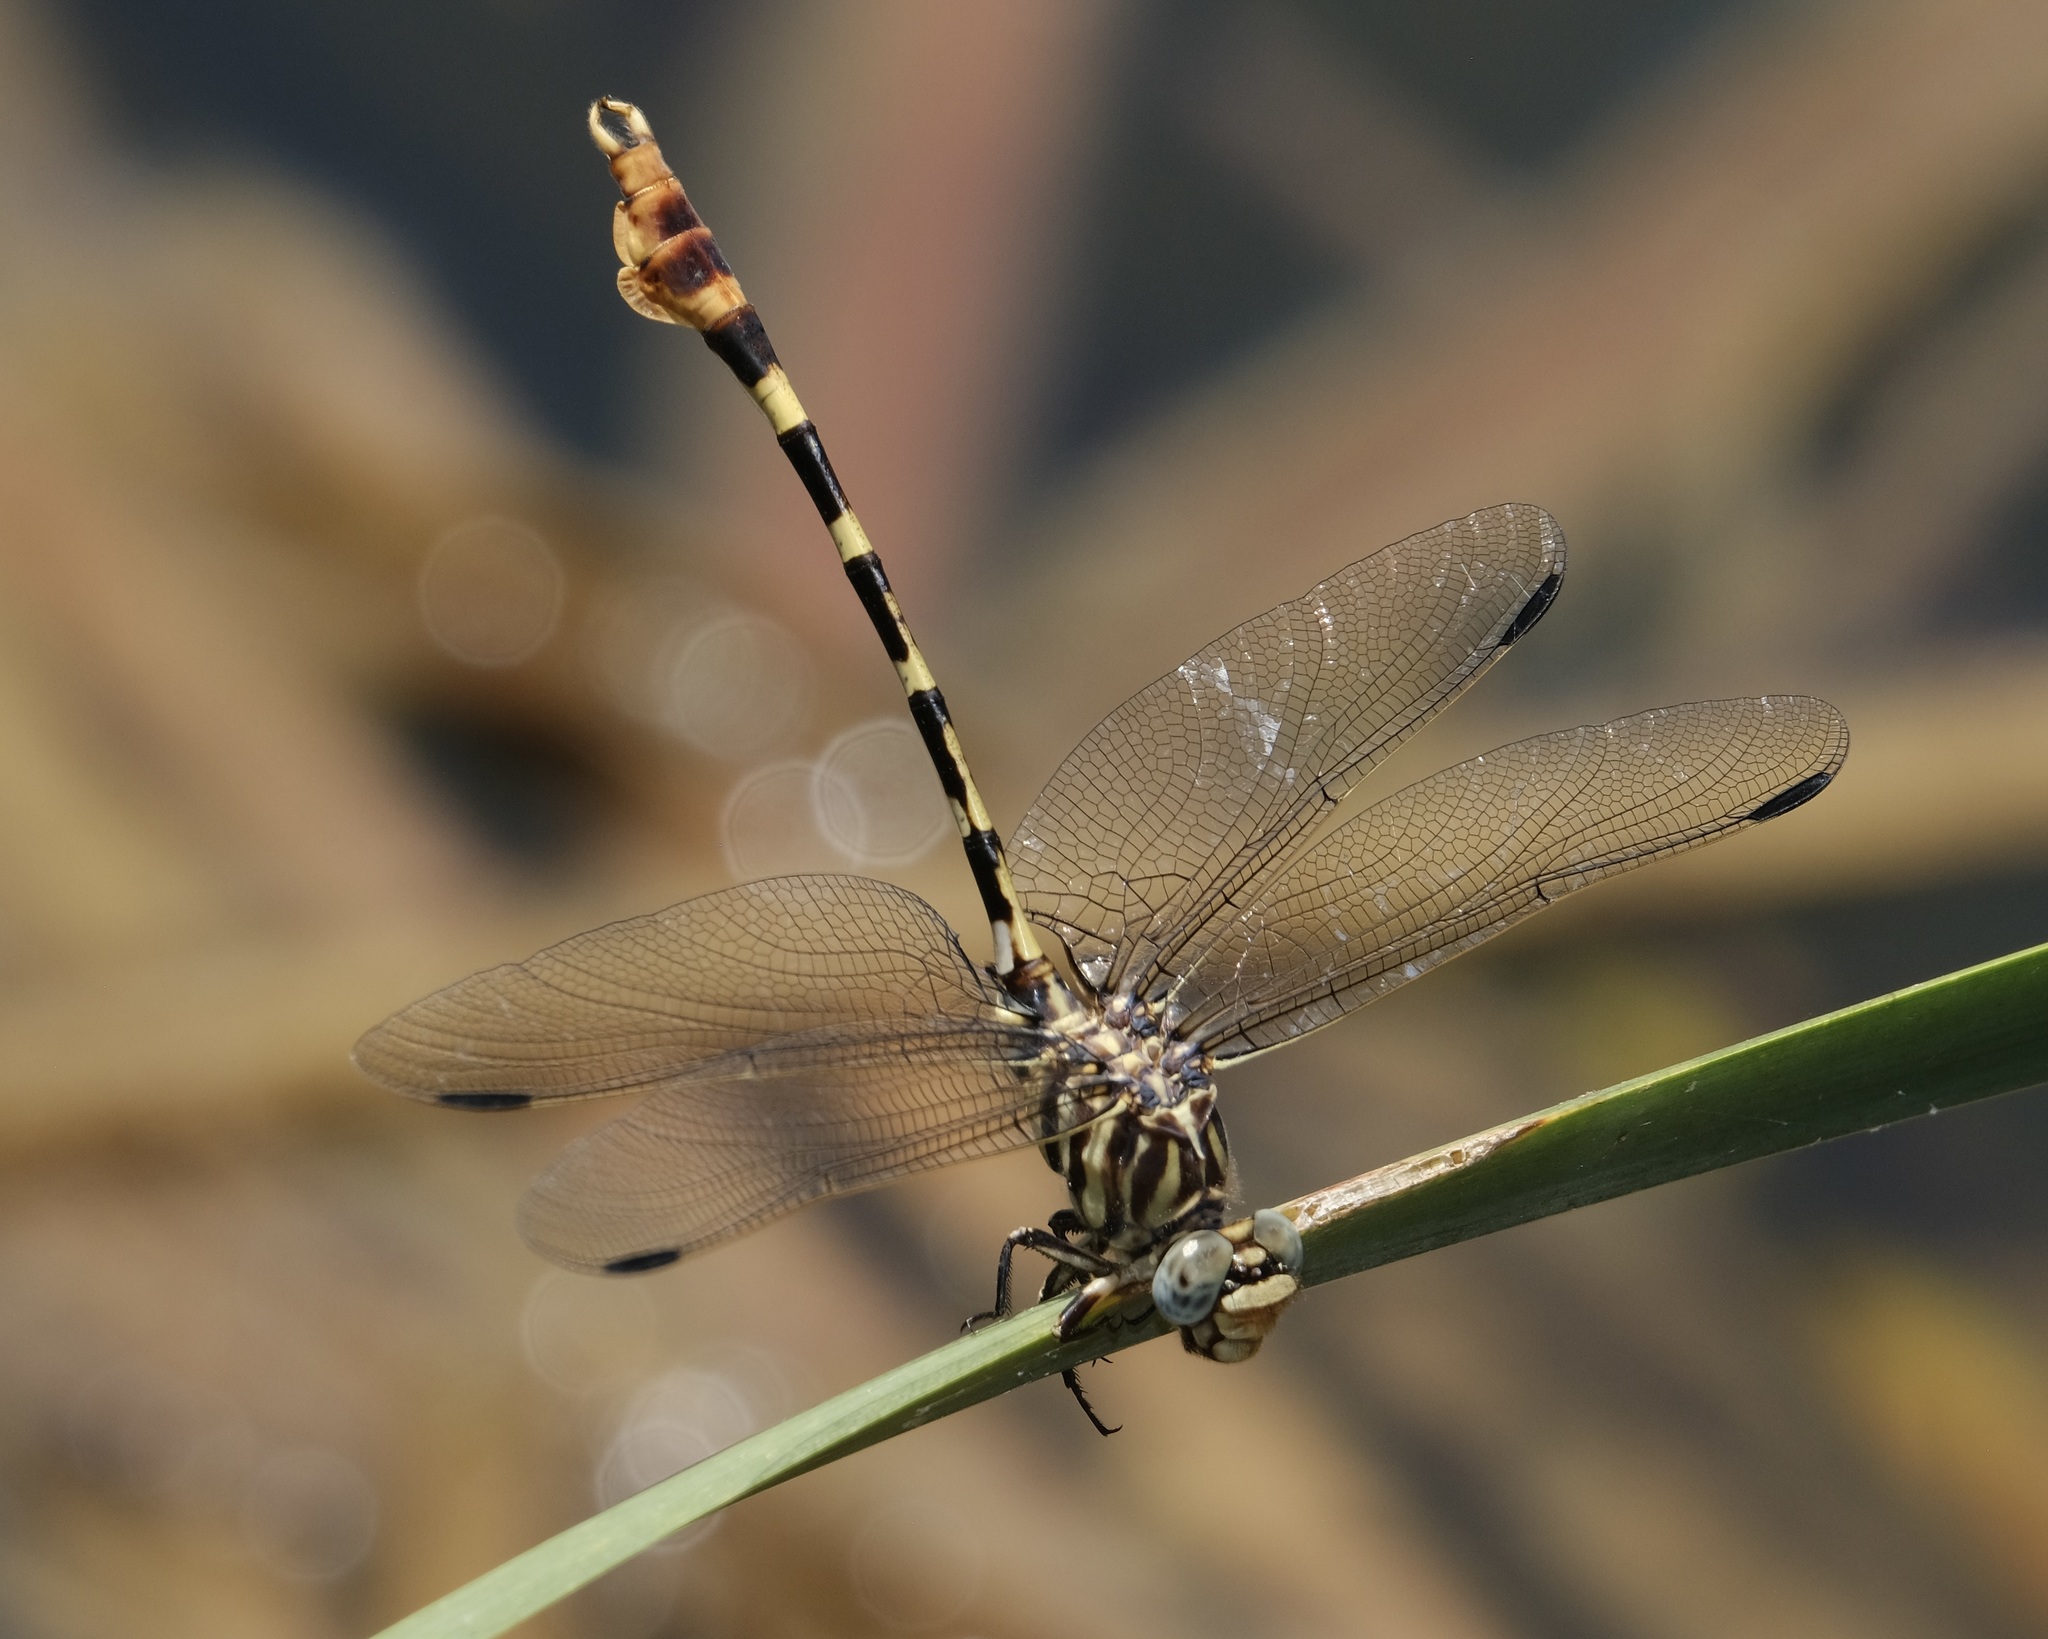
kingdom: Animalia
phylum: Arthropoda
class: Insecta
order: Odonata
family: Gomphidae
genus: Phyllogomphoides
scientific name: Phyllogomphoides stigmatus
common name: Four-striped leaftail
